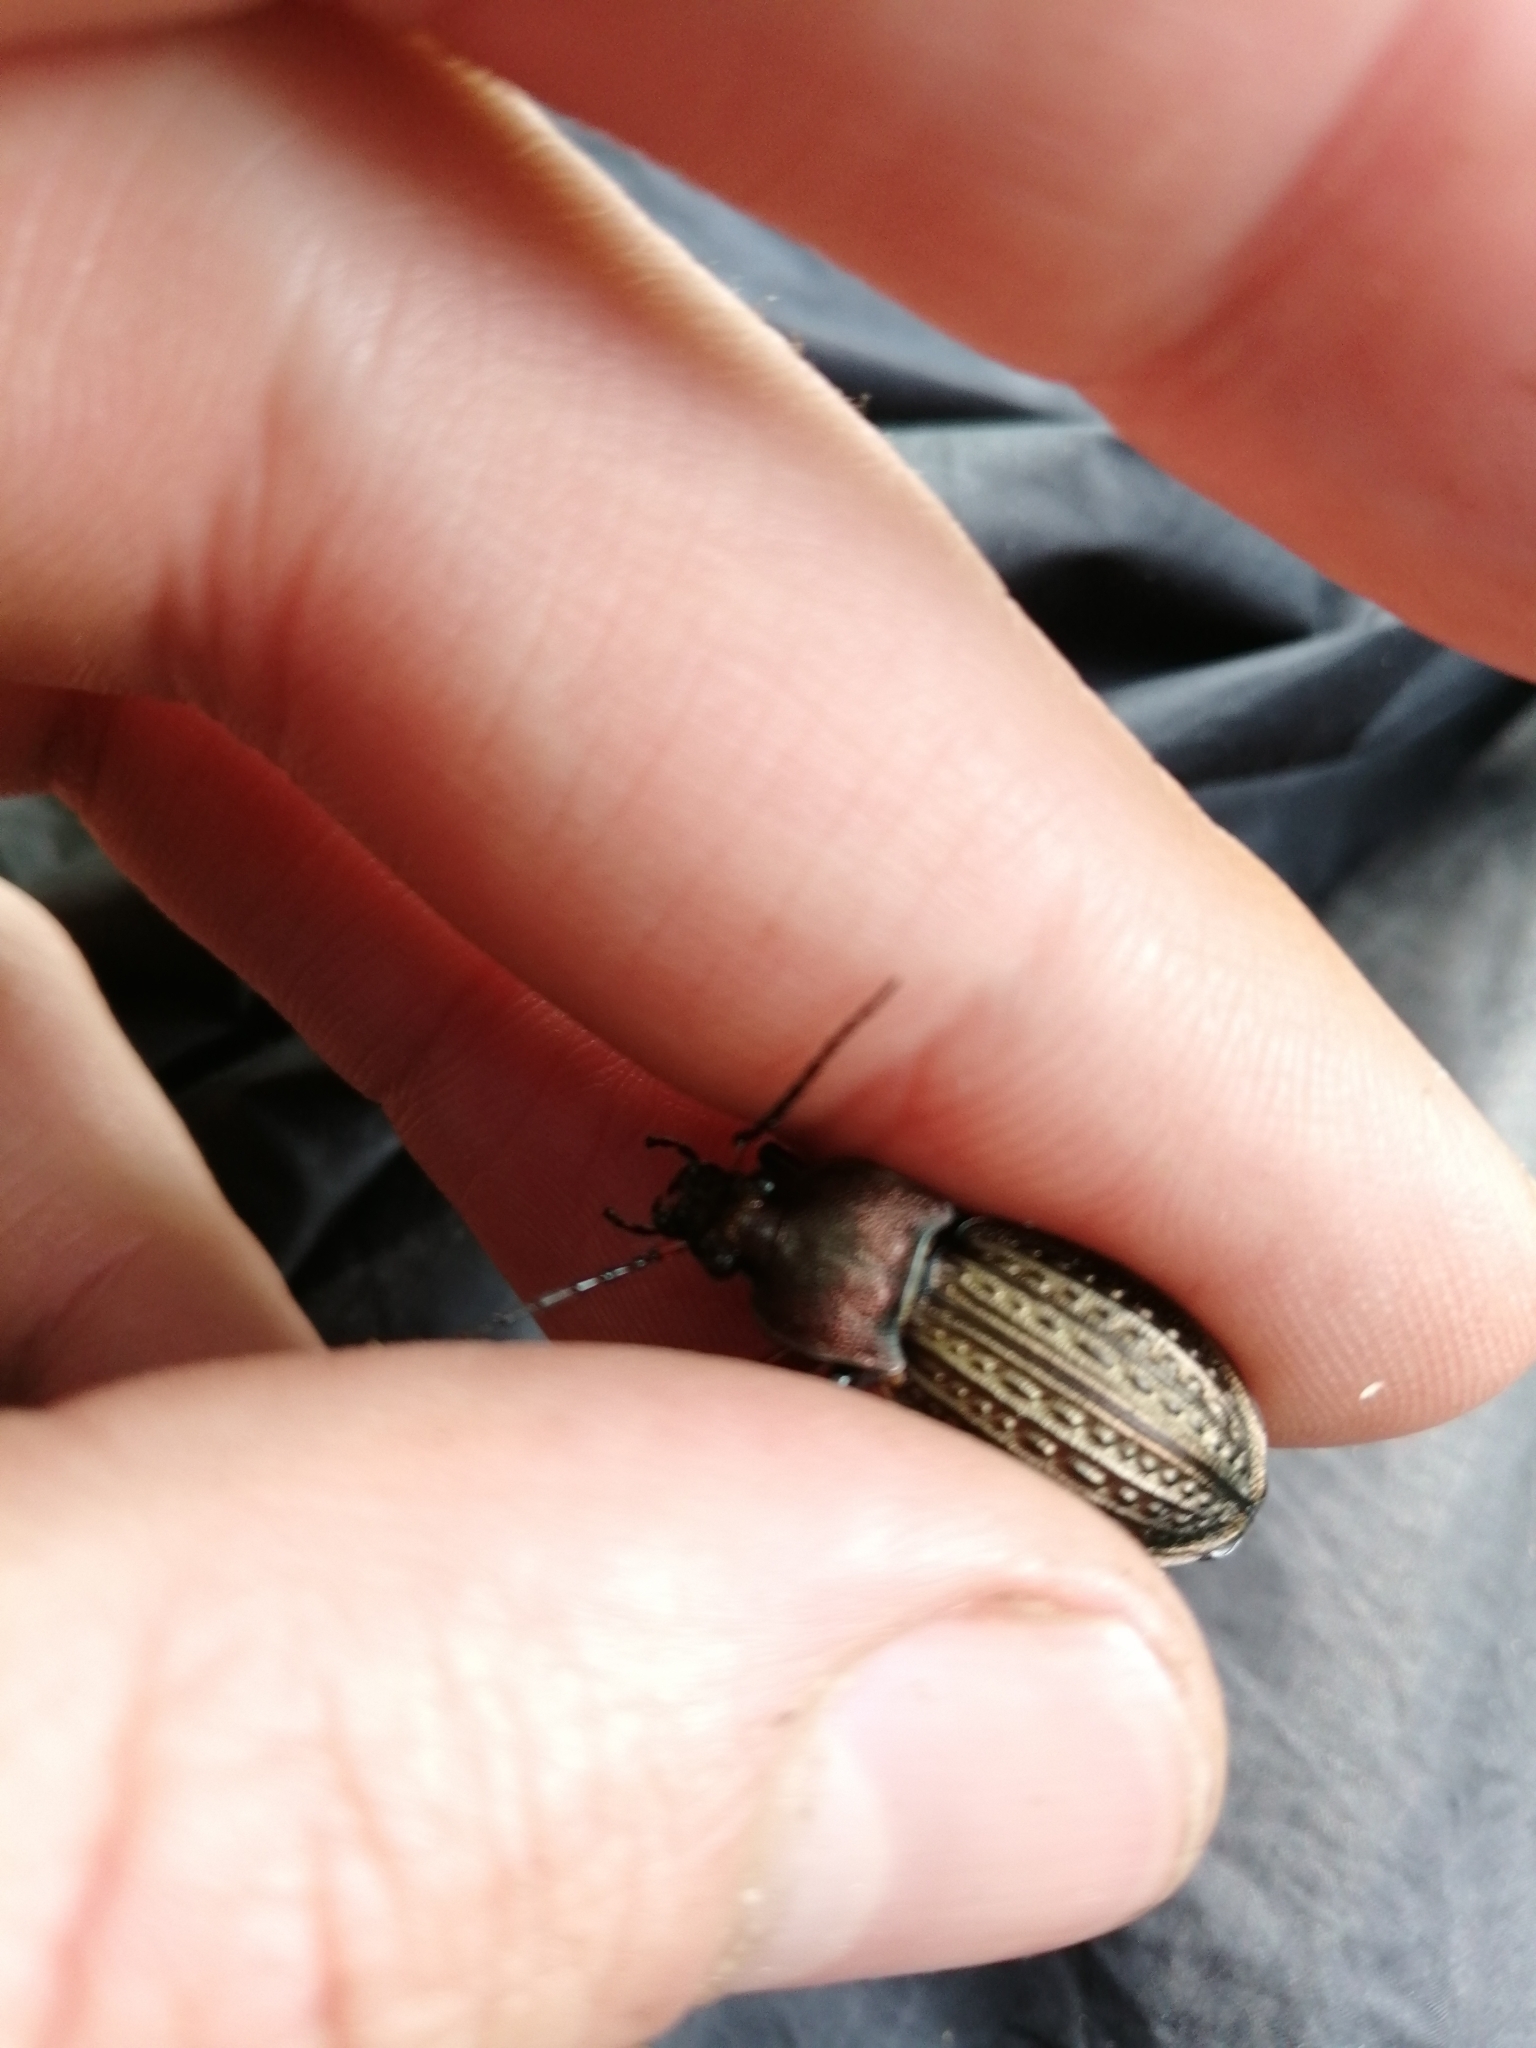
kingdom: Animalia
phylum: Arthropoda
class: Insecta
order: Coleoptera
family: Carabidae
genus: Carabus
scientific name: Carabus cancellatus
